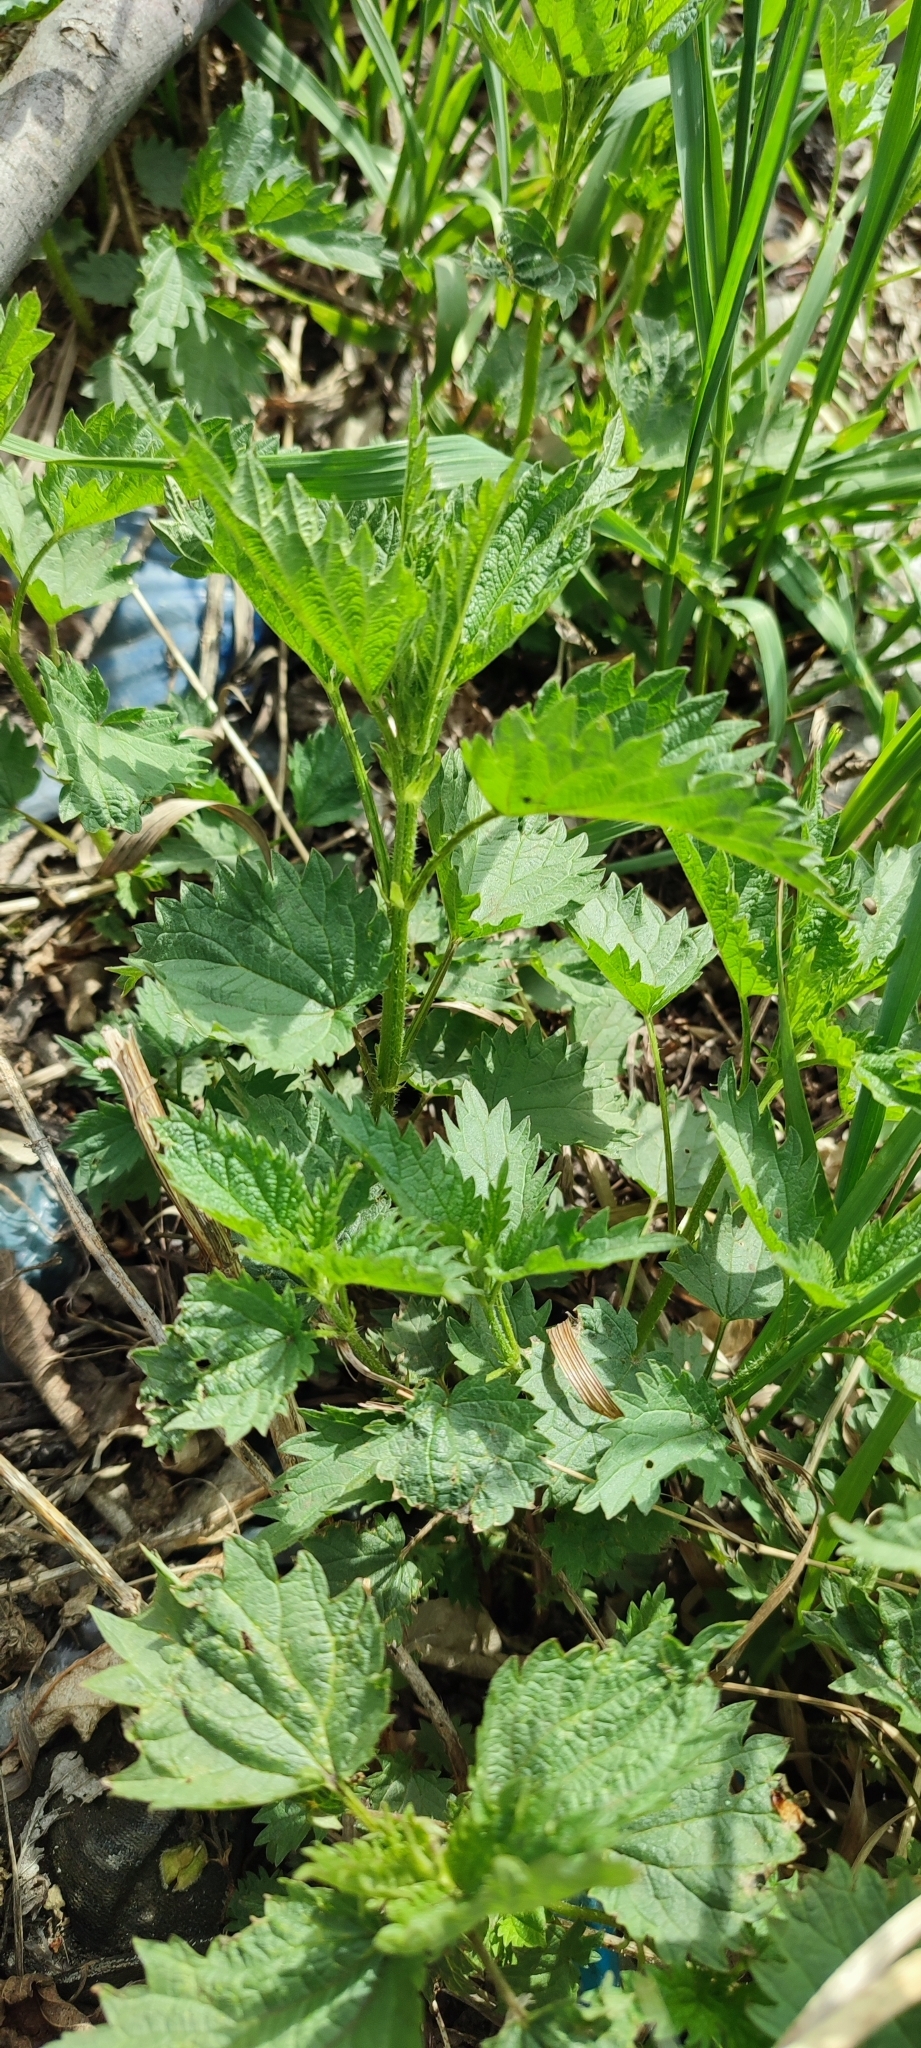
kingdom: Plantae
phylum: Tracheophyta
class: Magnoliopsida
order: Rosales
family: Urticaceae
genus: Urtica
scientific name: Urtica dioica
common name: Common nettle
